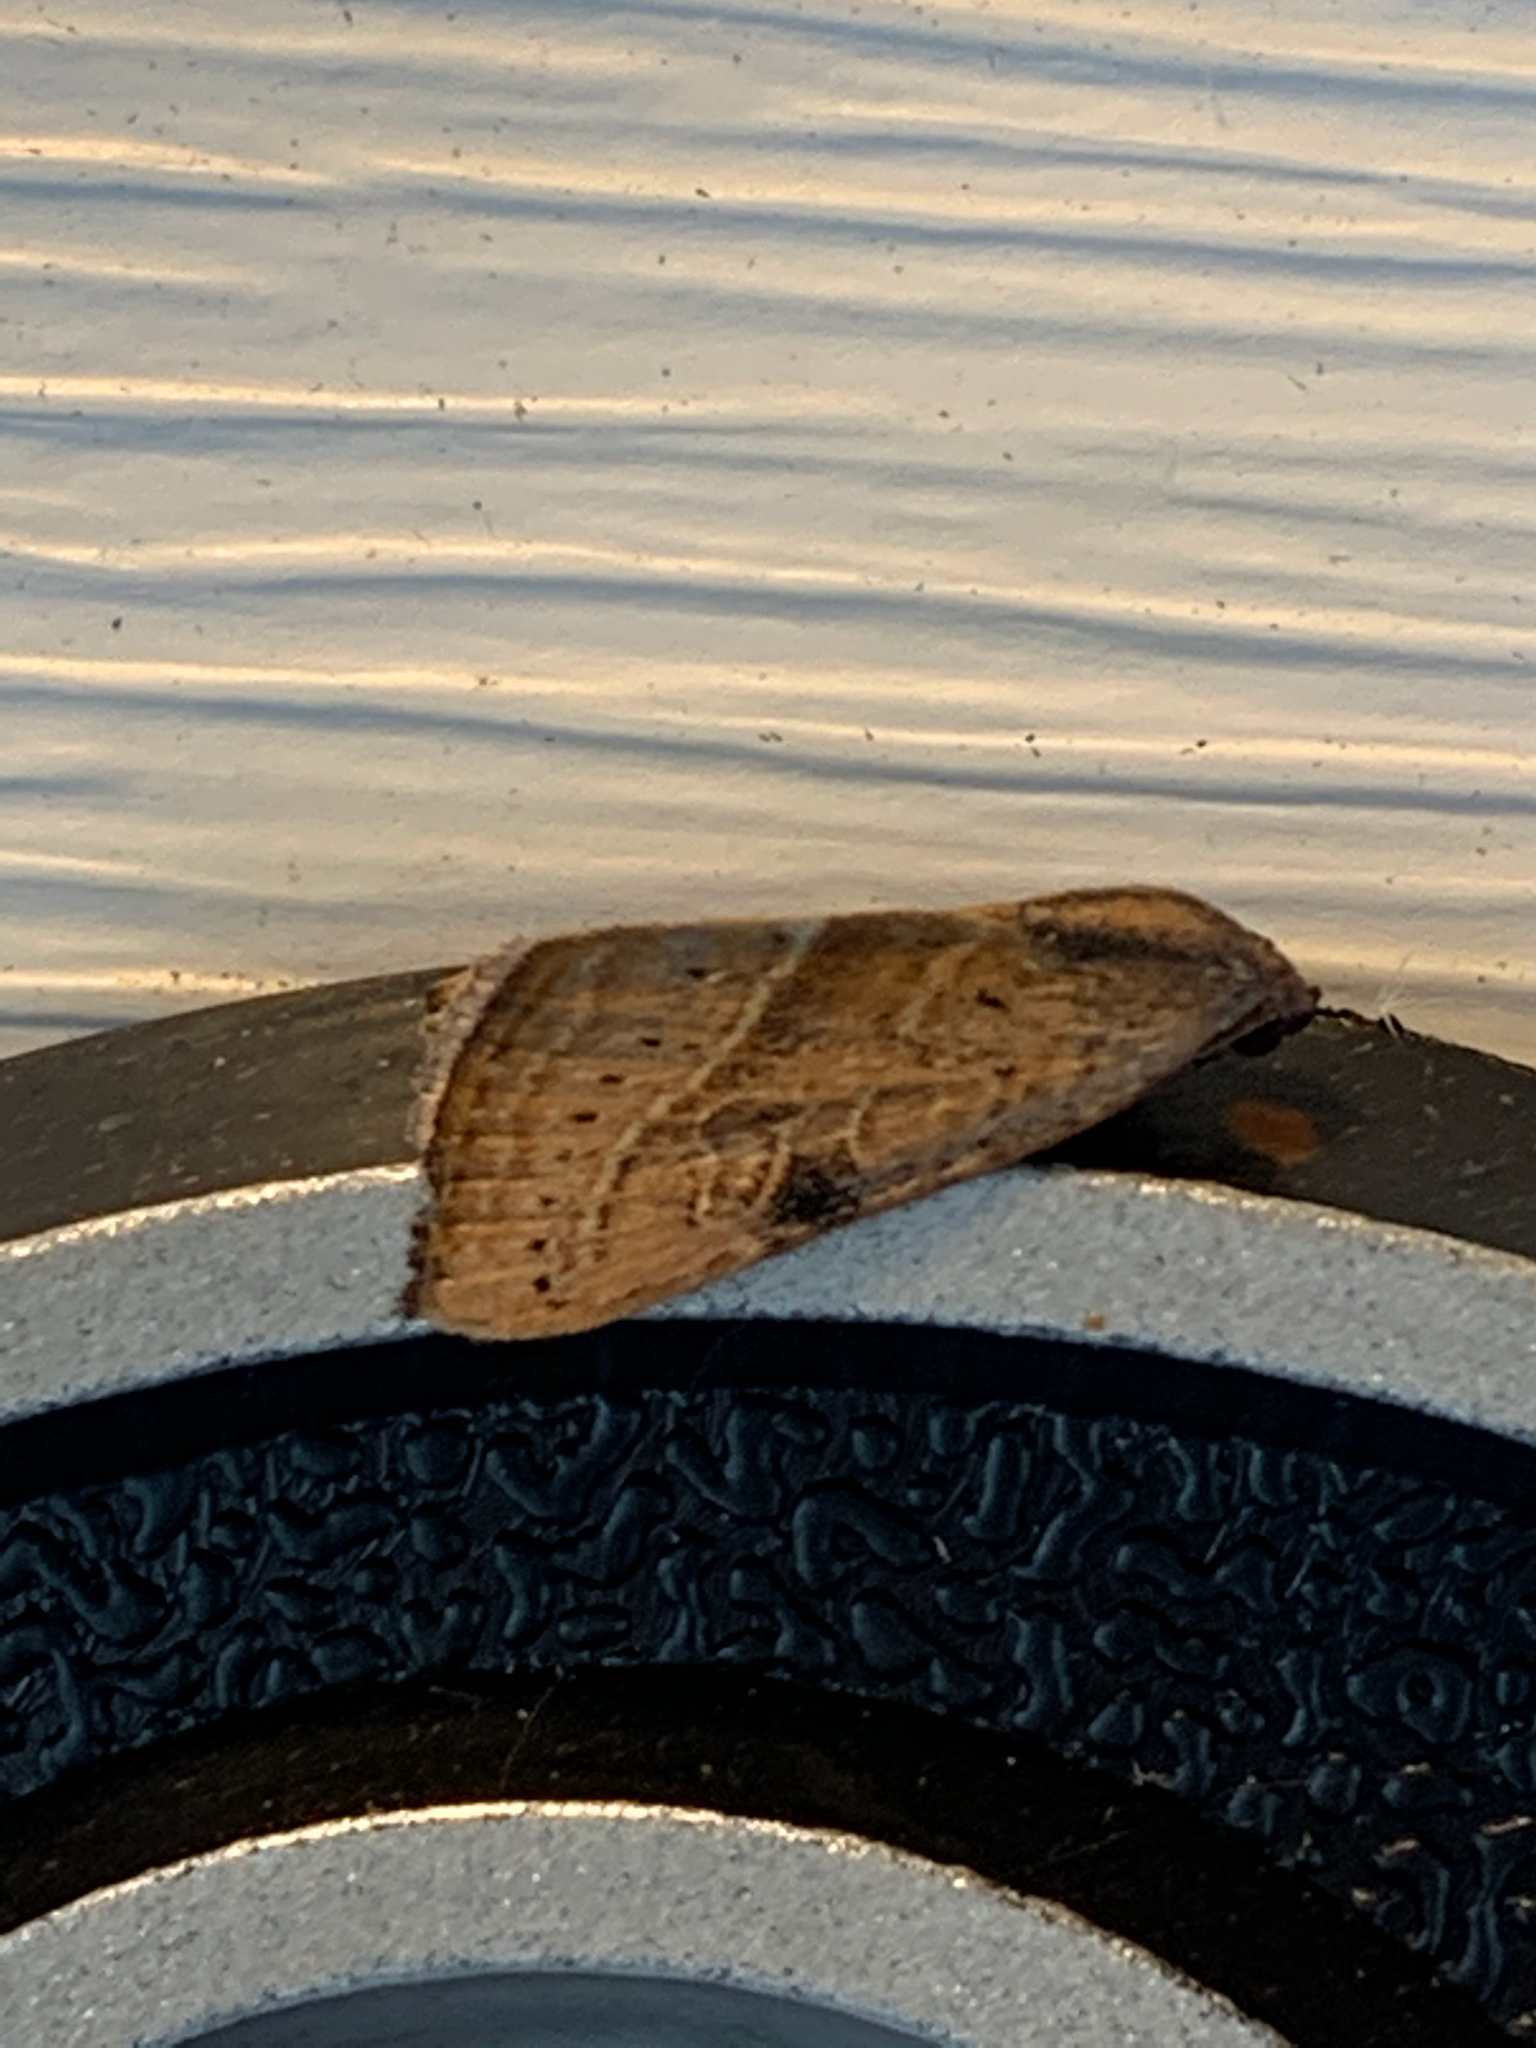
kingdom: Animalia
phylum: Arthropoda
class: Insecta
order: Lepidoptera
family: Noctuidae
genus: Galgula
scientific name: Galgula partita
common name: Wedgeling
